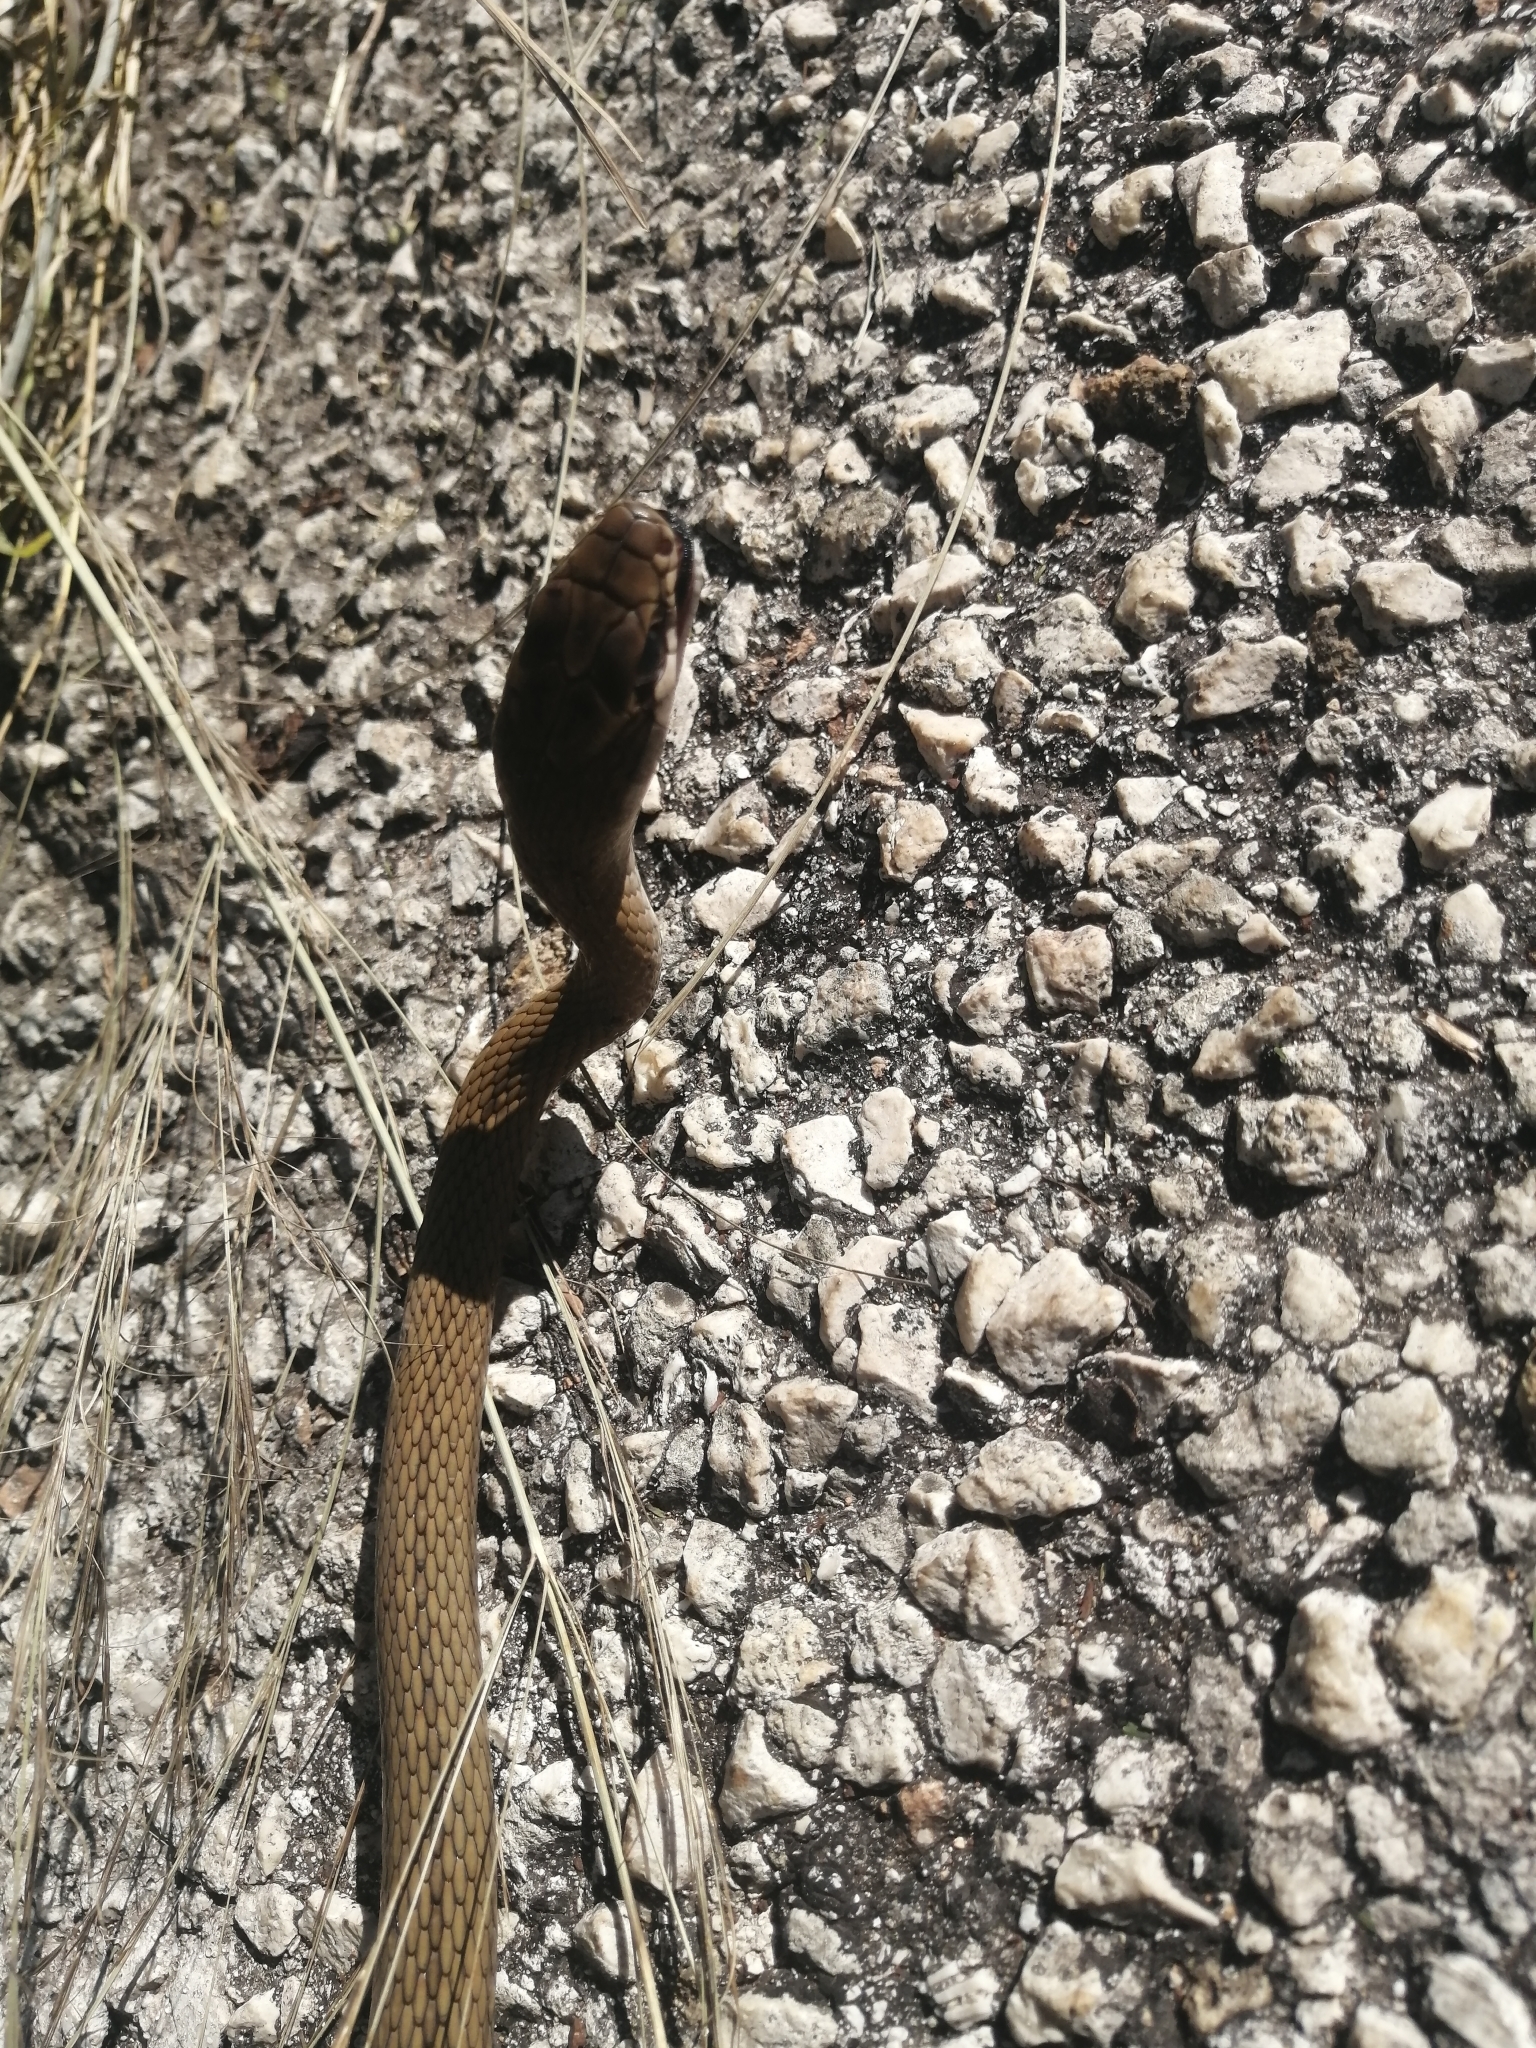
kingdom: Animalia
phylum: Chordata
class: Squamata
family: Colubridae
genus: Mastigodryas
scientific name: Mastigodryas melanolomus
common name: Salmon-bellied racer
